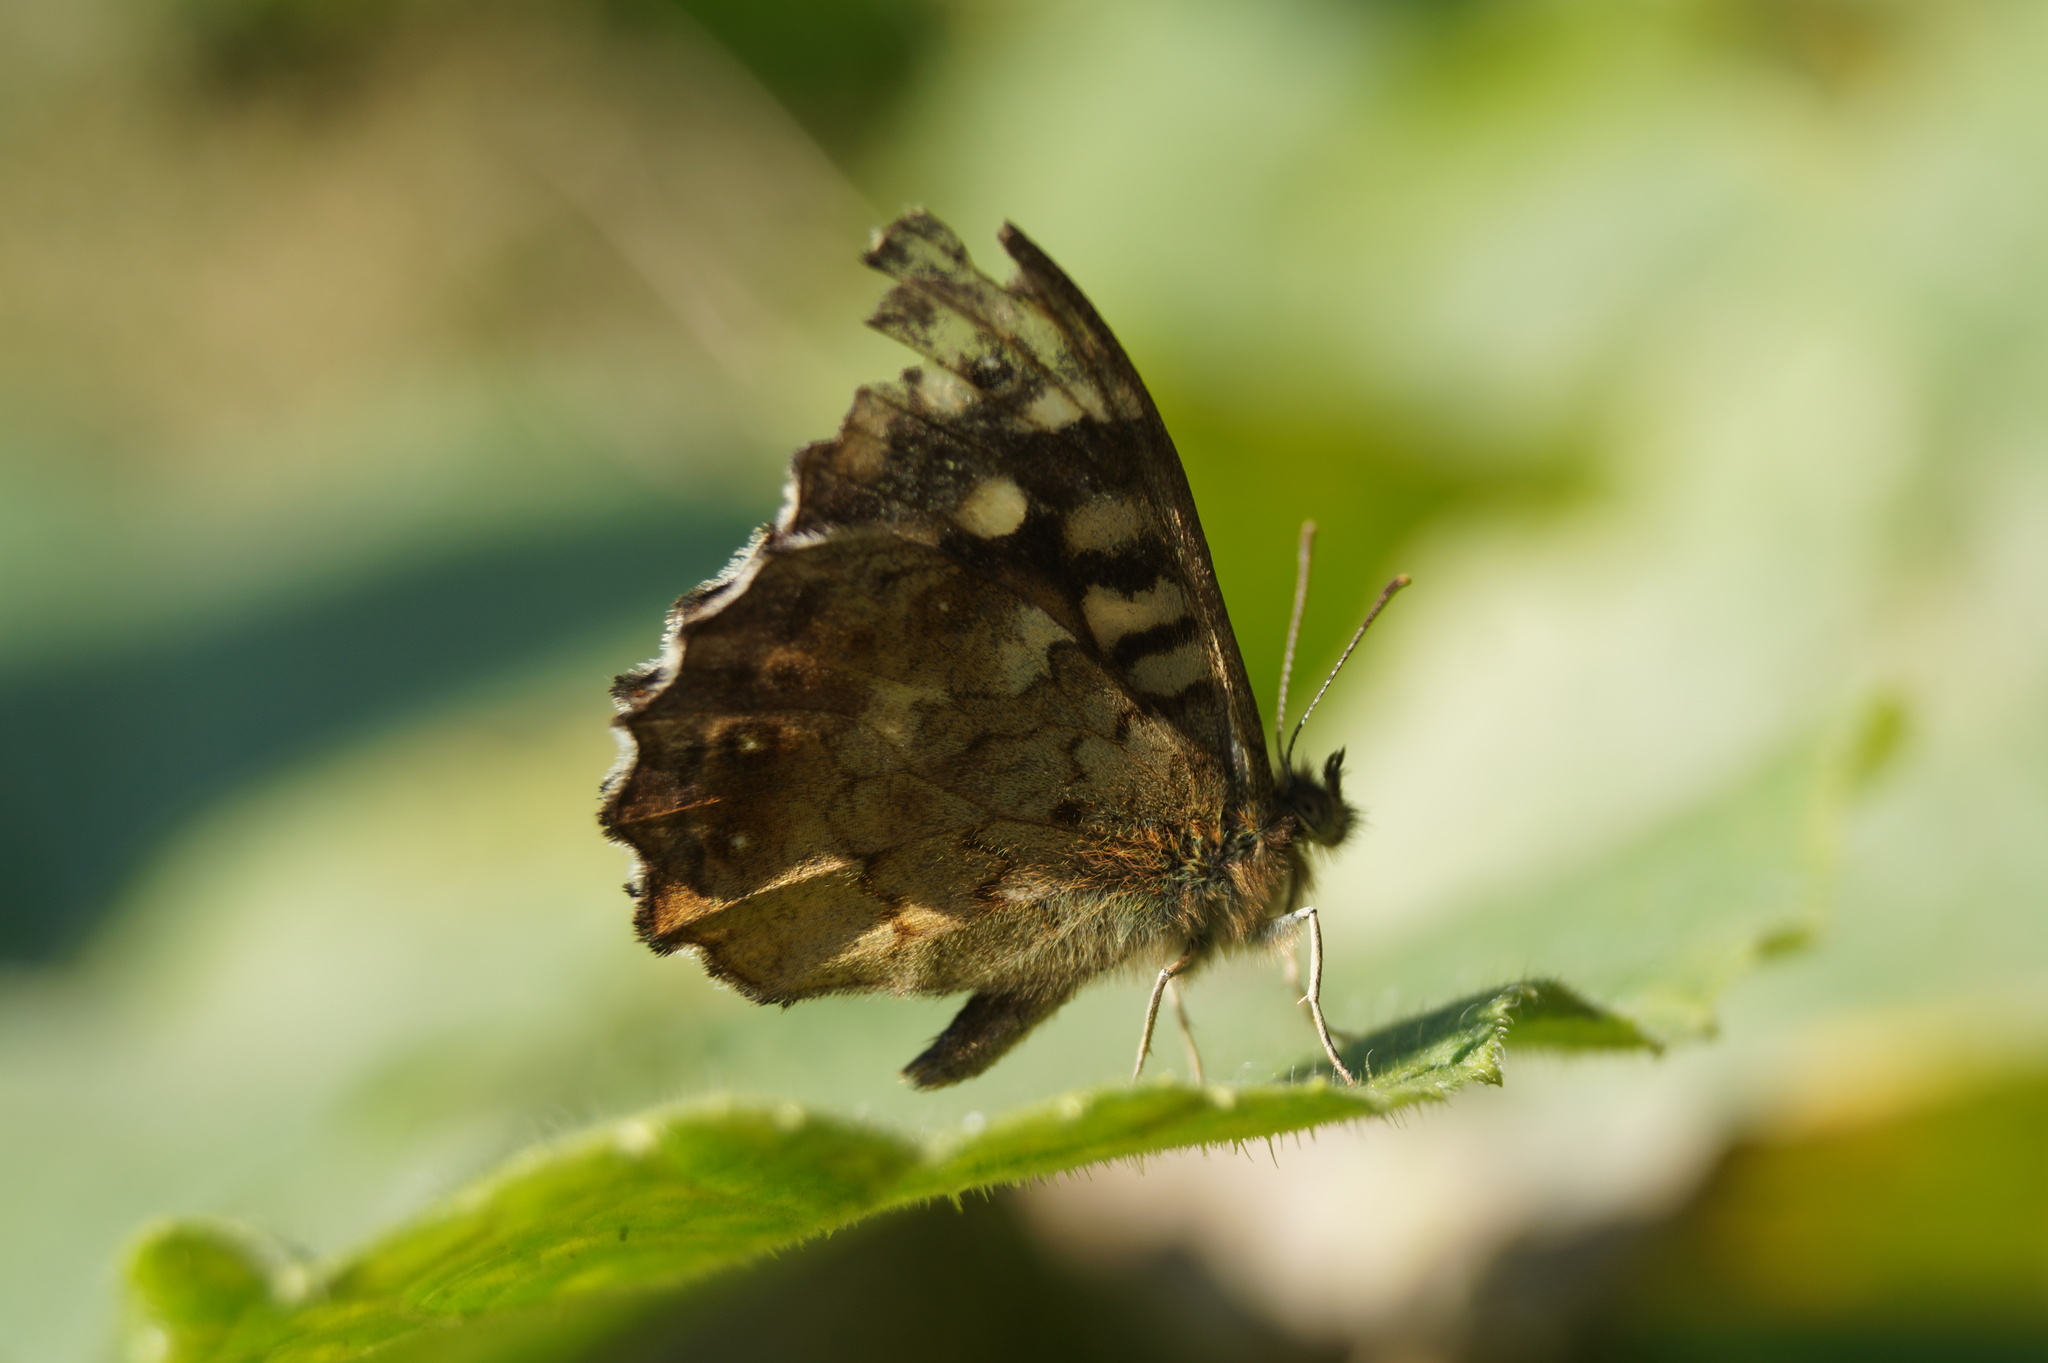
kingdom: Animalia
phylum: Arthropoda
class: Insecta
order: Lepidoptera
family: Nymphalidae
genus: Pararge
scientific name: Pararge aegeria
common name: Speckled wood
